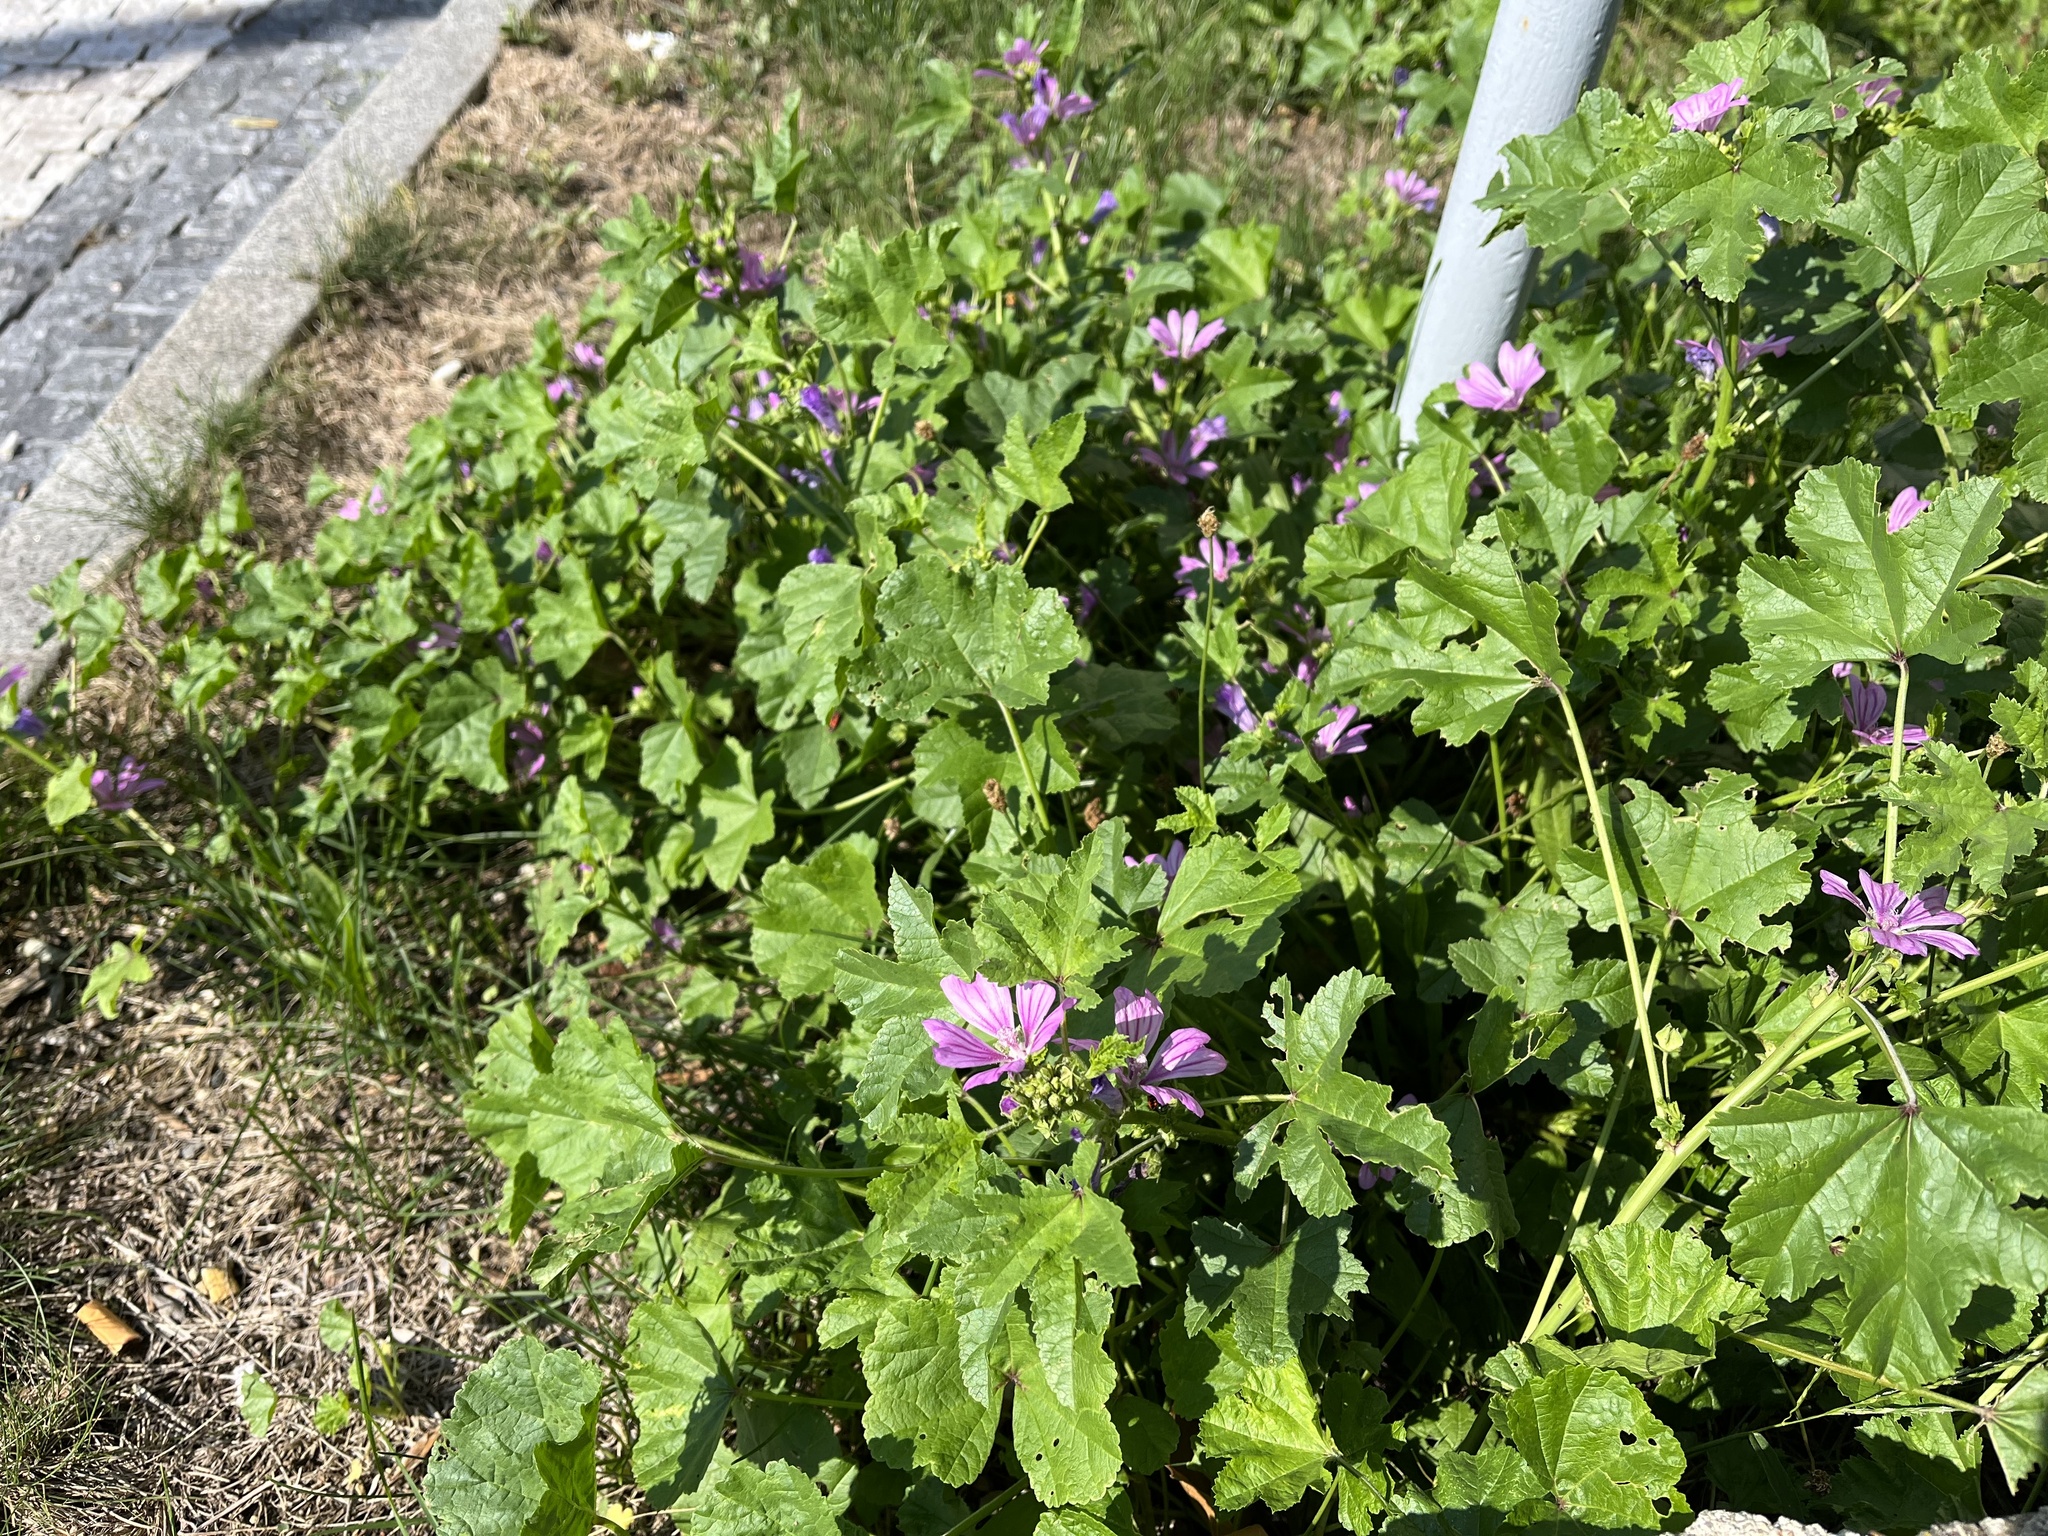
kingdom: Plantae
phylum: Tracheophyta
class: Magnoliopsida
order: Malvales
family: Malvaceae
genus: Malva
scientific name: Malva sylvestris
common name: Common mallow
